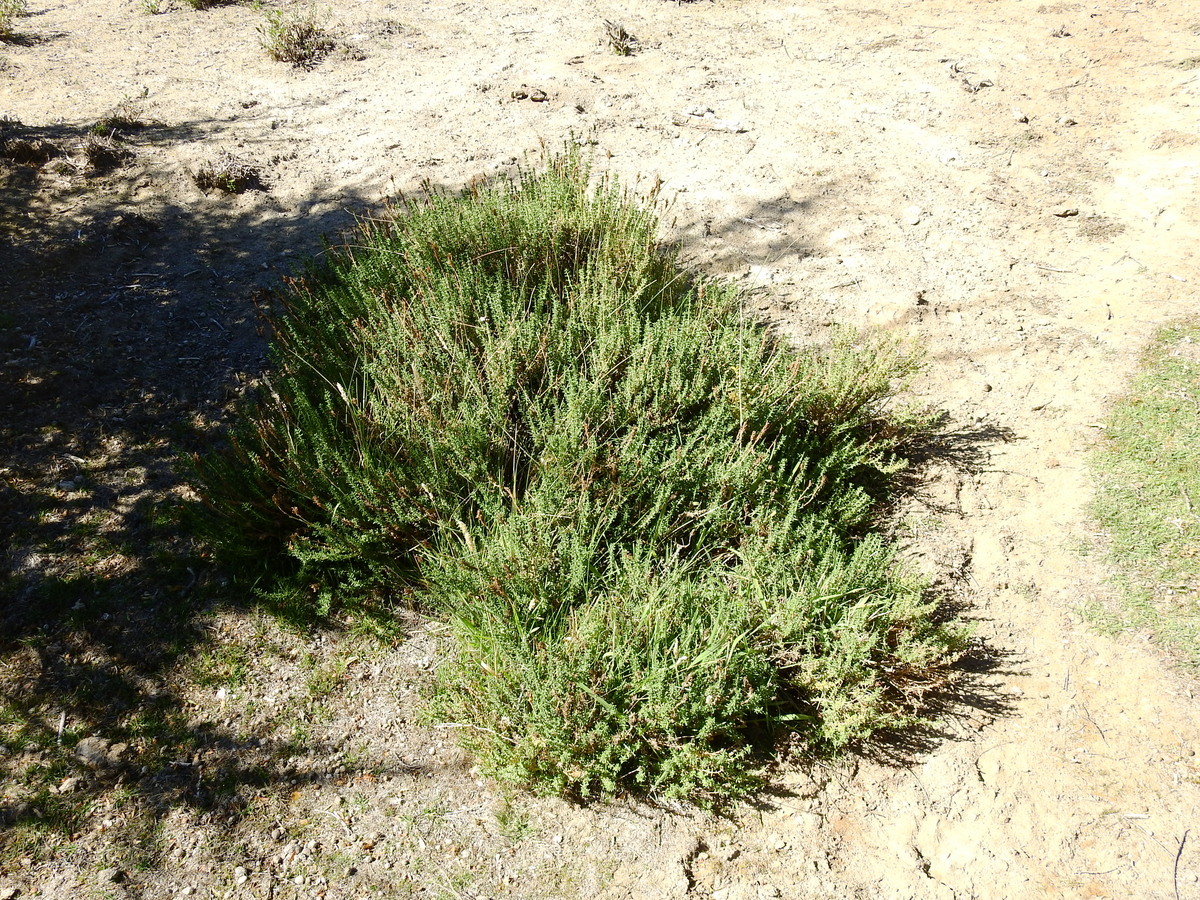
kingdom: Plantae
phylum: Tracheophyta
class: Magnoliopsida
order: Lamiales
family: Verbenaceae
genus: Junellia
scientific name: Junellia succulentifolia
